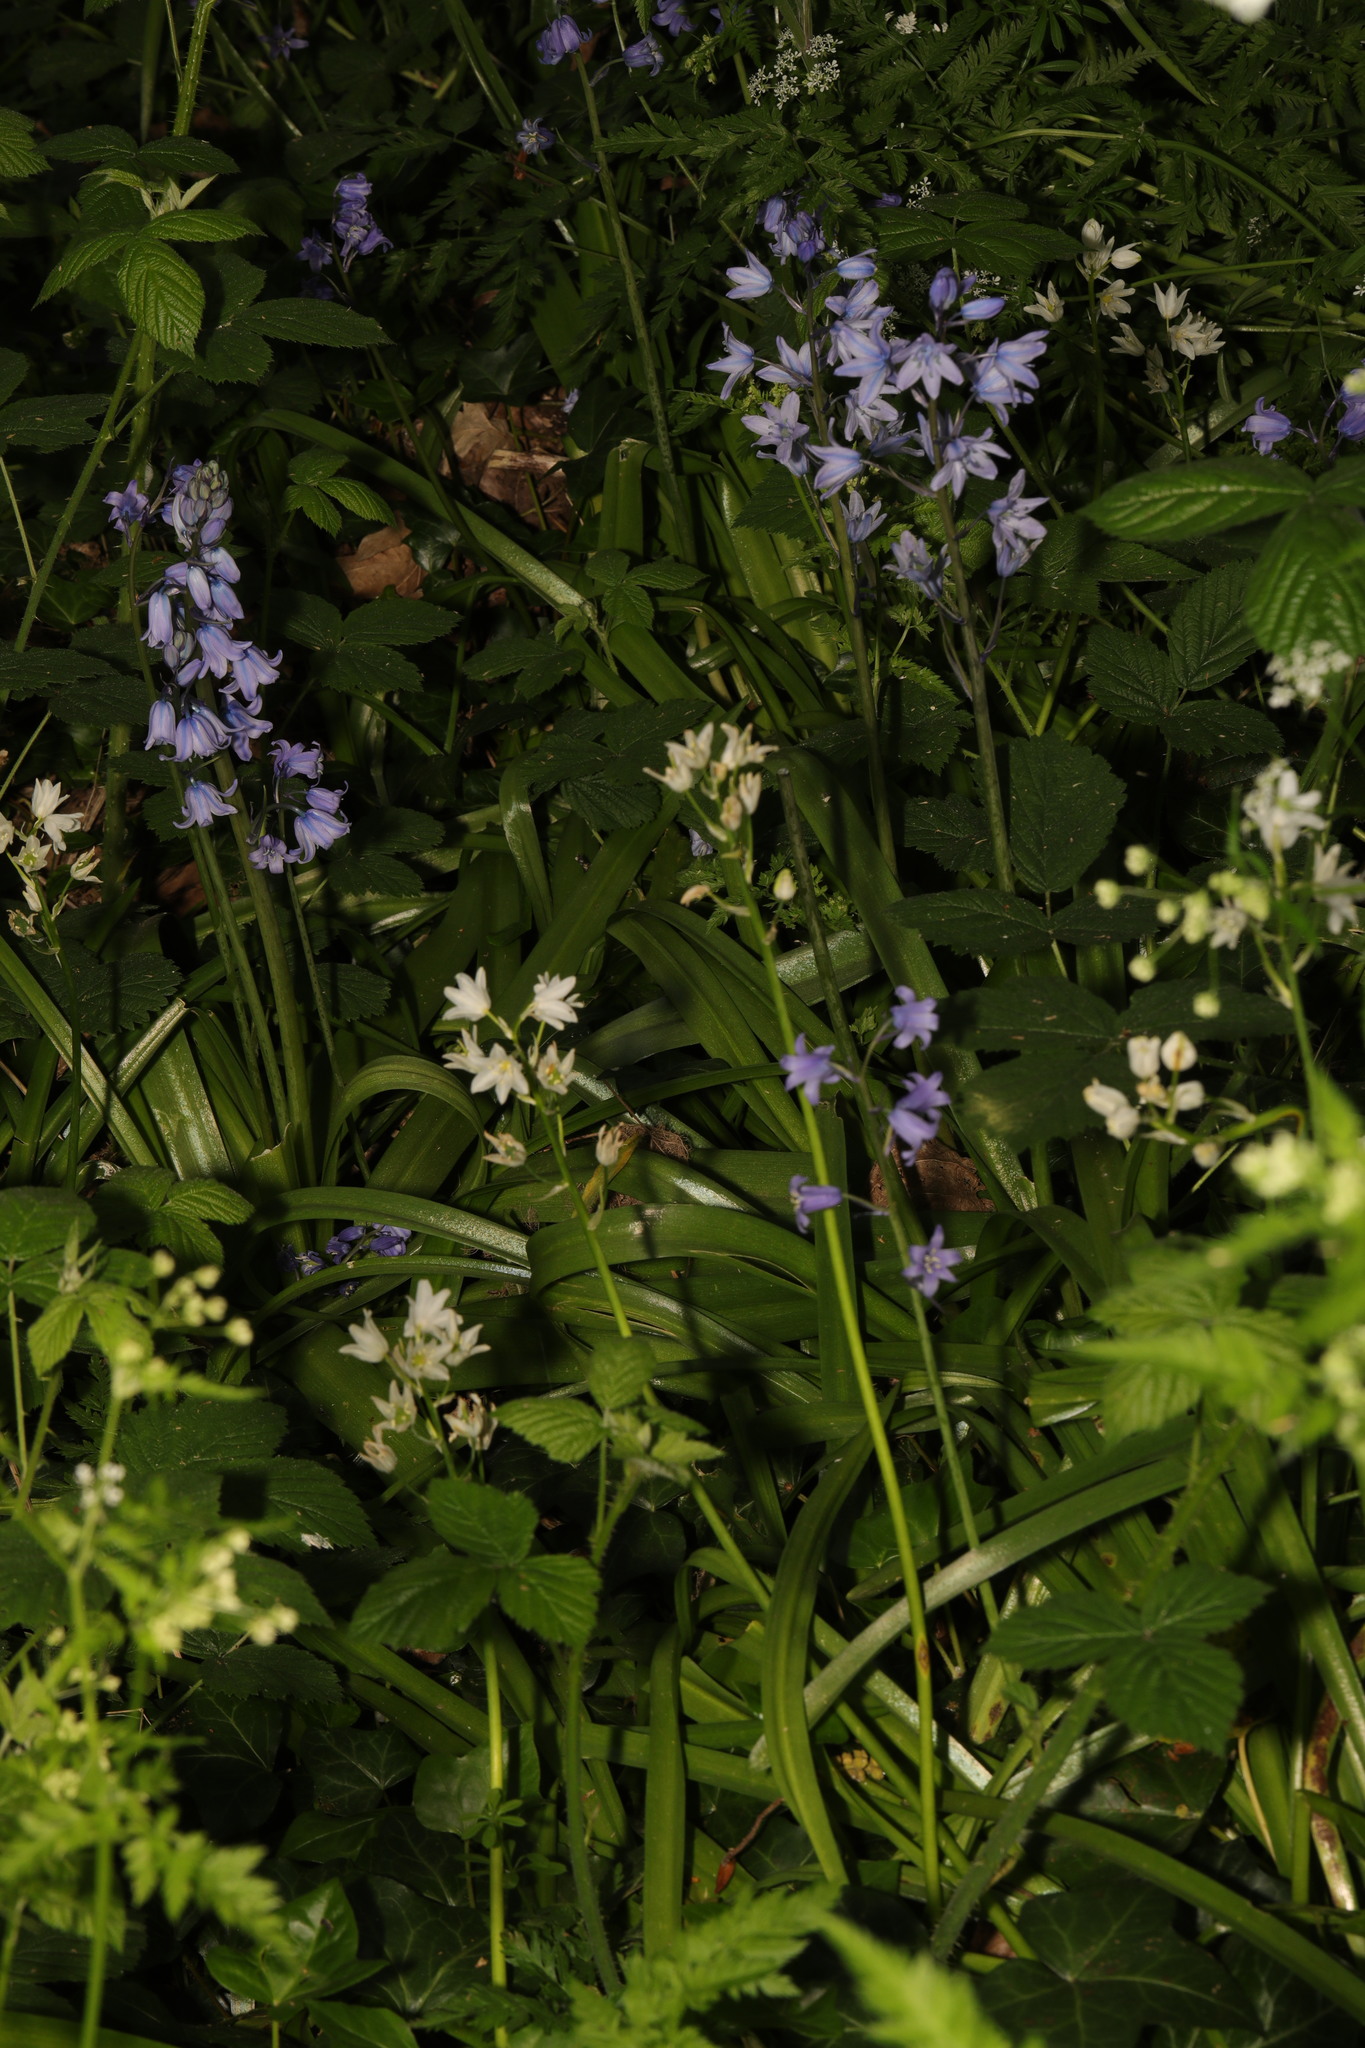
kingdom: Plantae
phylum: Tracheophyta
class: Liliopsida
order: Asparagales
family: Asparagaceae
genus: Hyacinthoides
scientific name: Hyacinthoides massartiana
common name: Hyacinthoides
